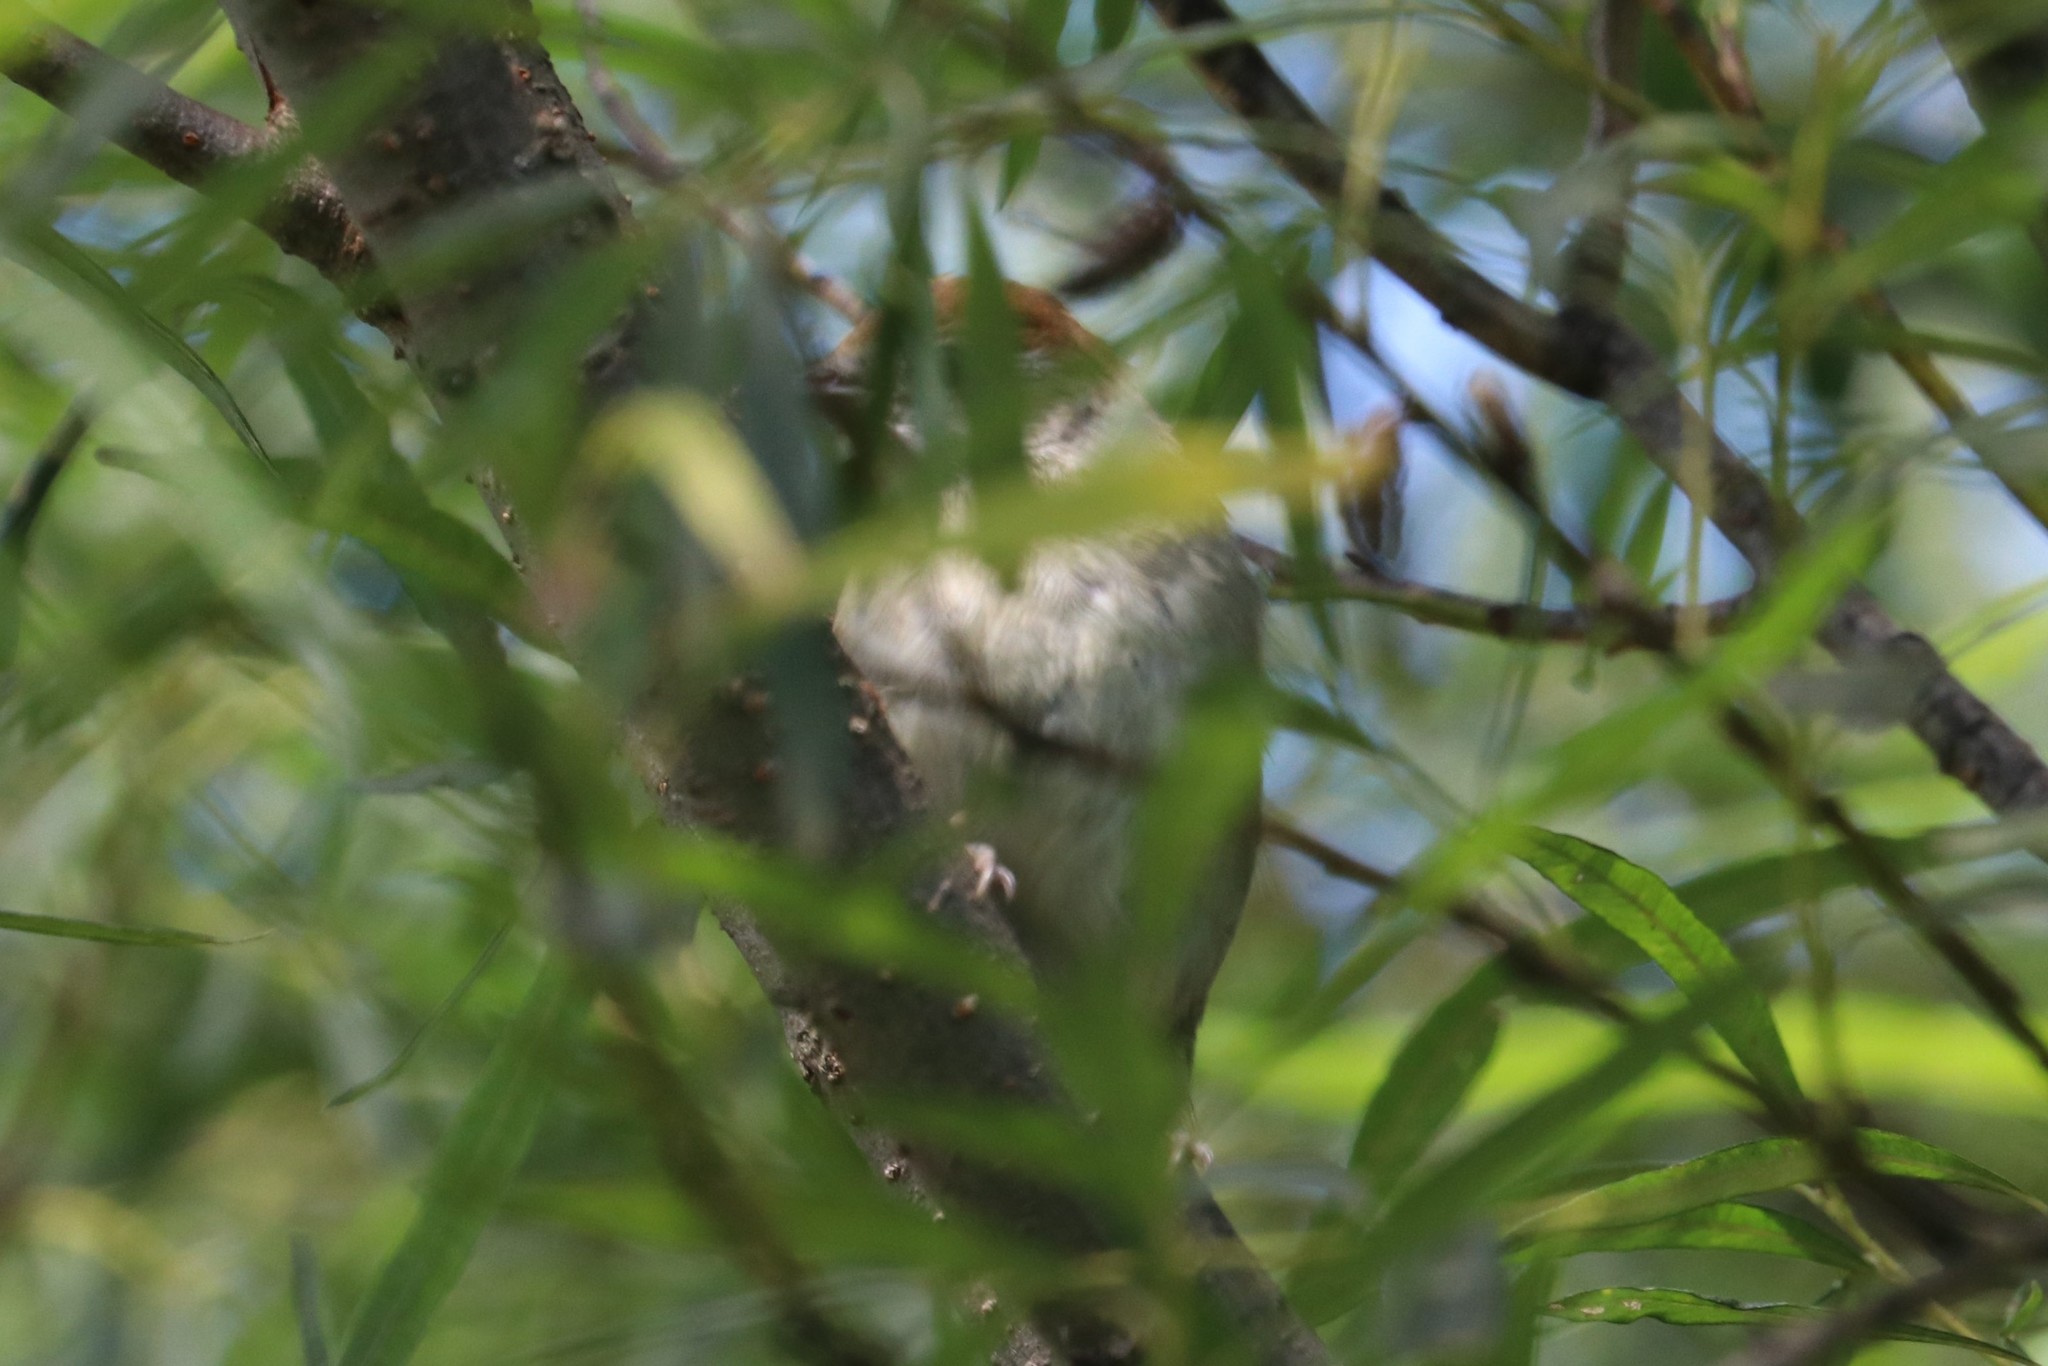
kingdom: Animalia
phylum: Chordata
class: Aves
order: Passeriformes
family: Sylviidae
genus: Sylvia
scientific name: Sylvia atricapilla
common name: Eurasian blackcap
